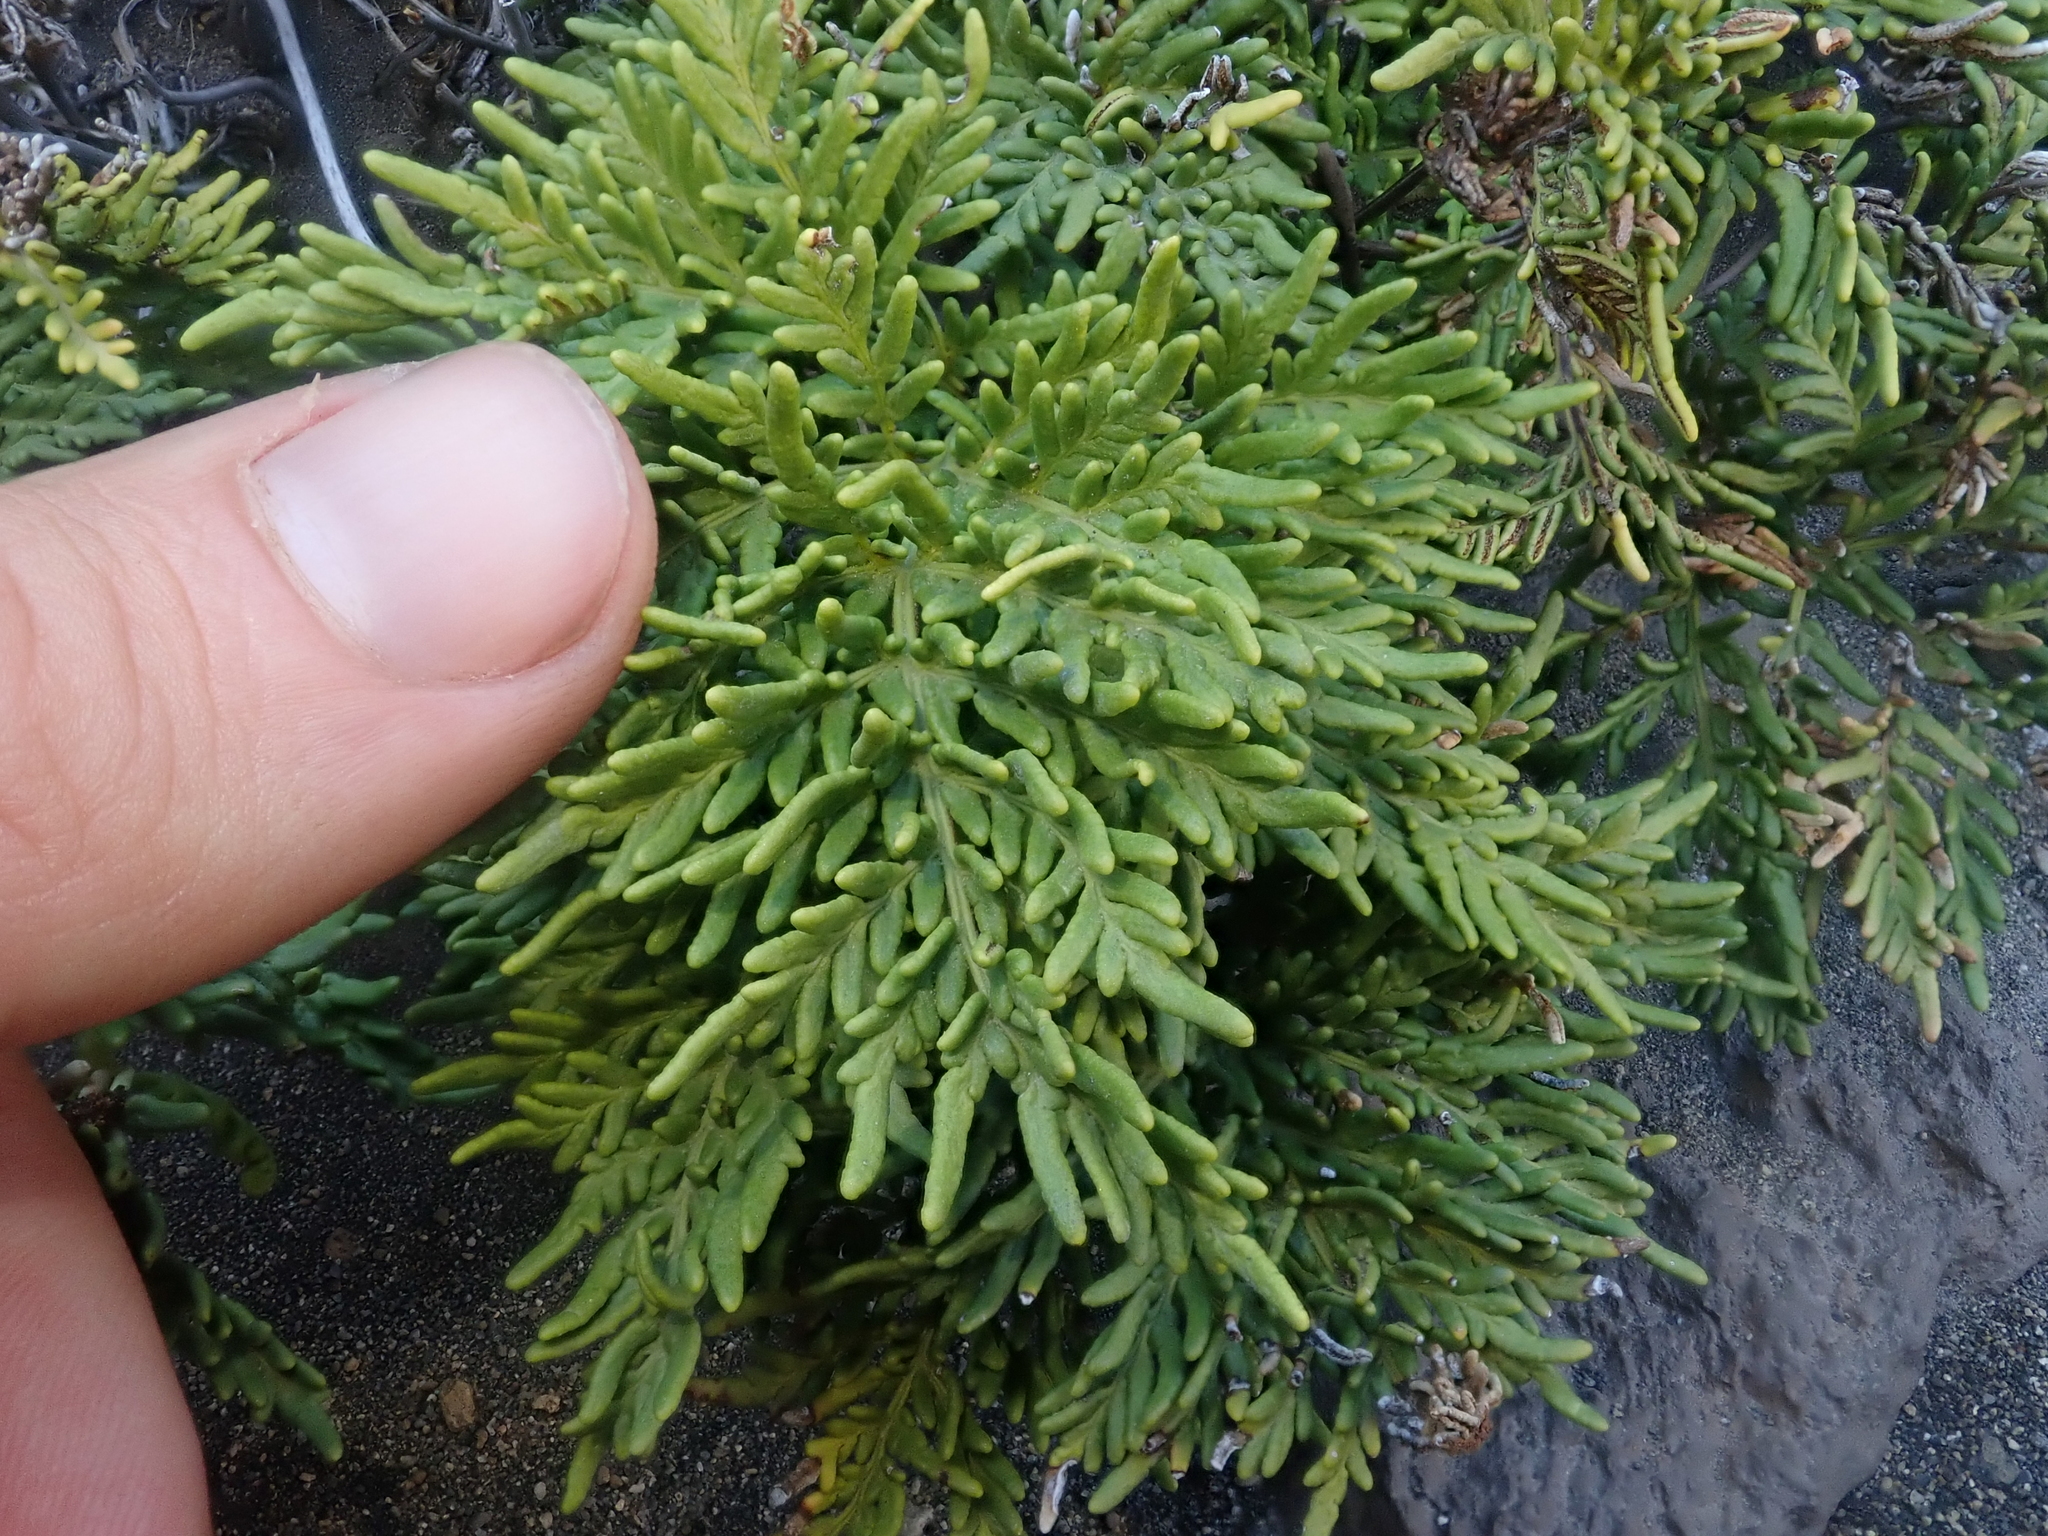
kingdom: Plantae
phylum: Tracheophyta
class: Polypodiopsida
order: Polypodiales
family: Pteridaceae
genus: Cheilanthes
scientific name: Cheilanthes glauca
